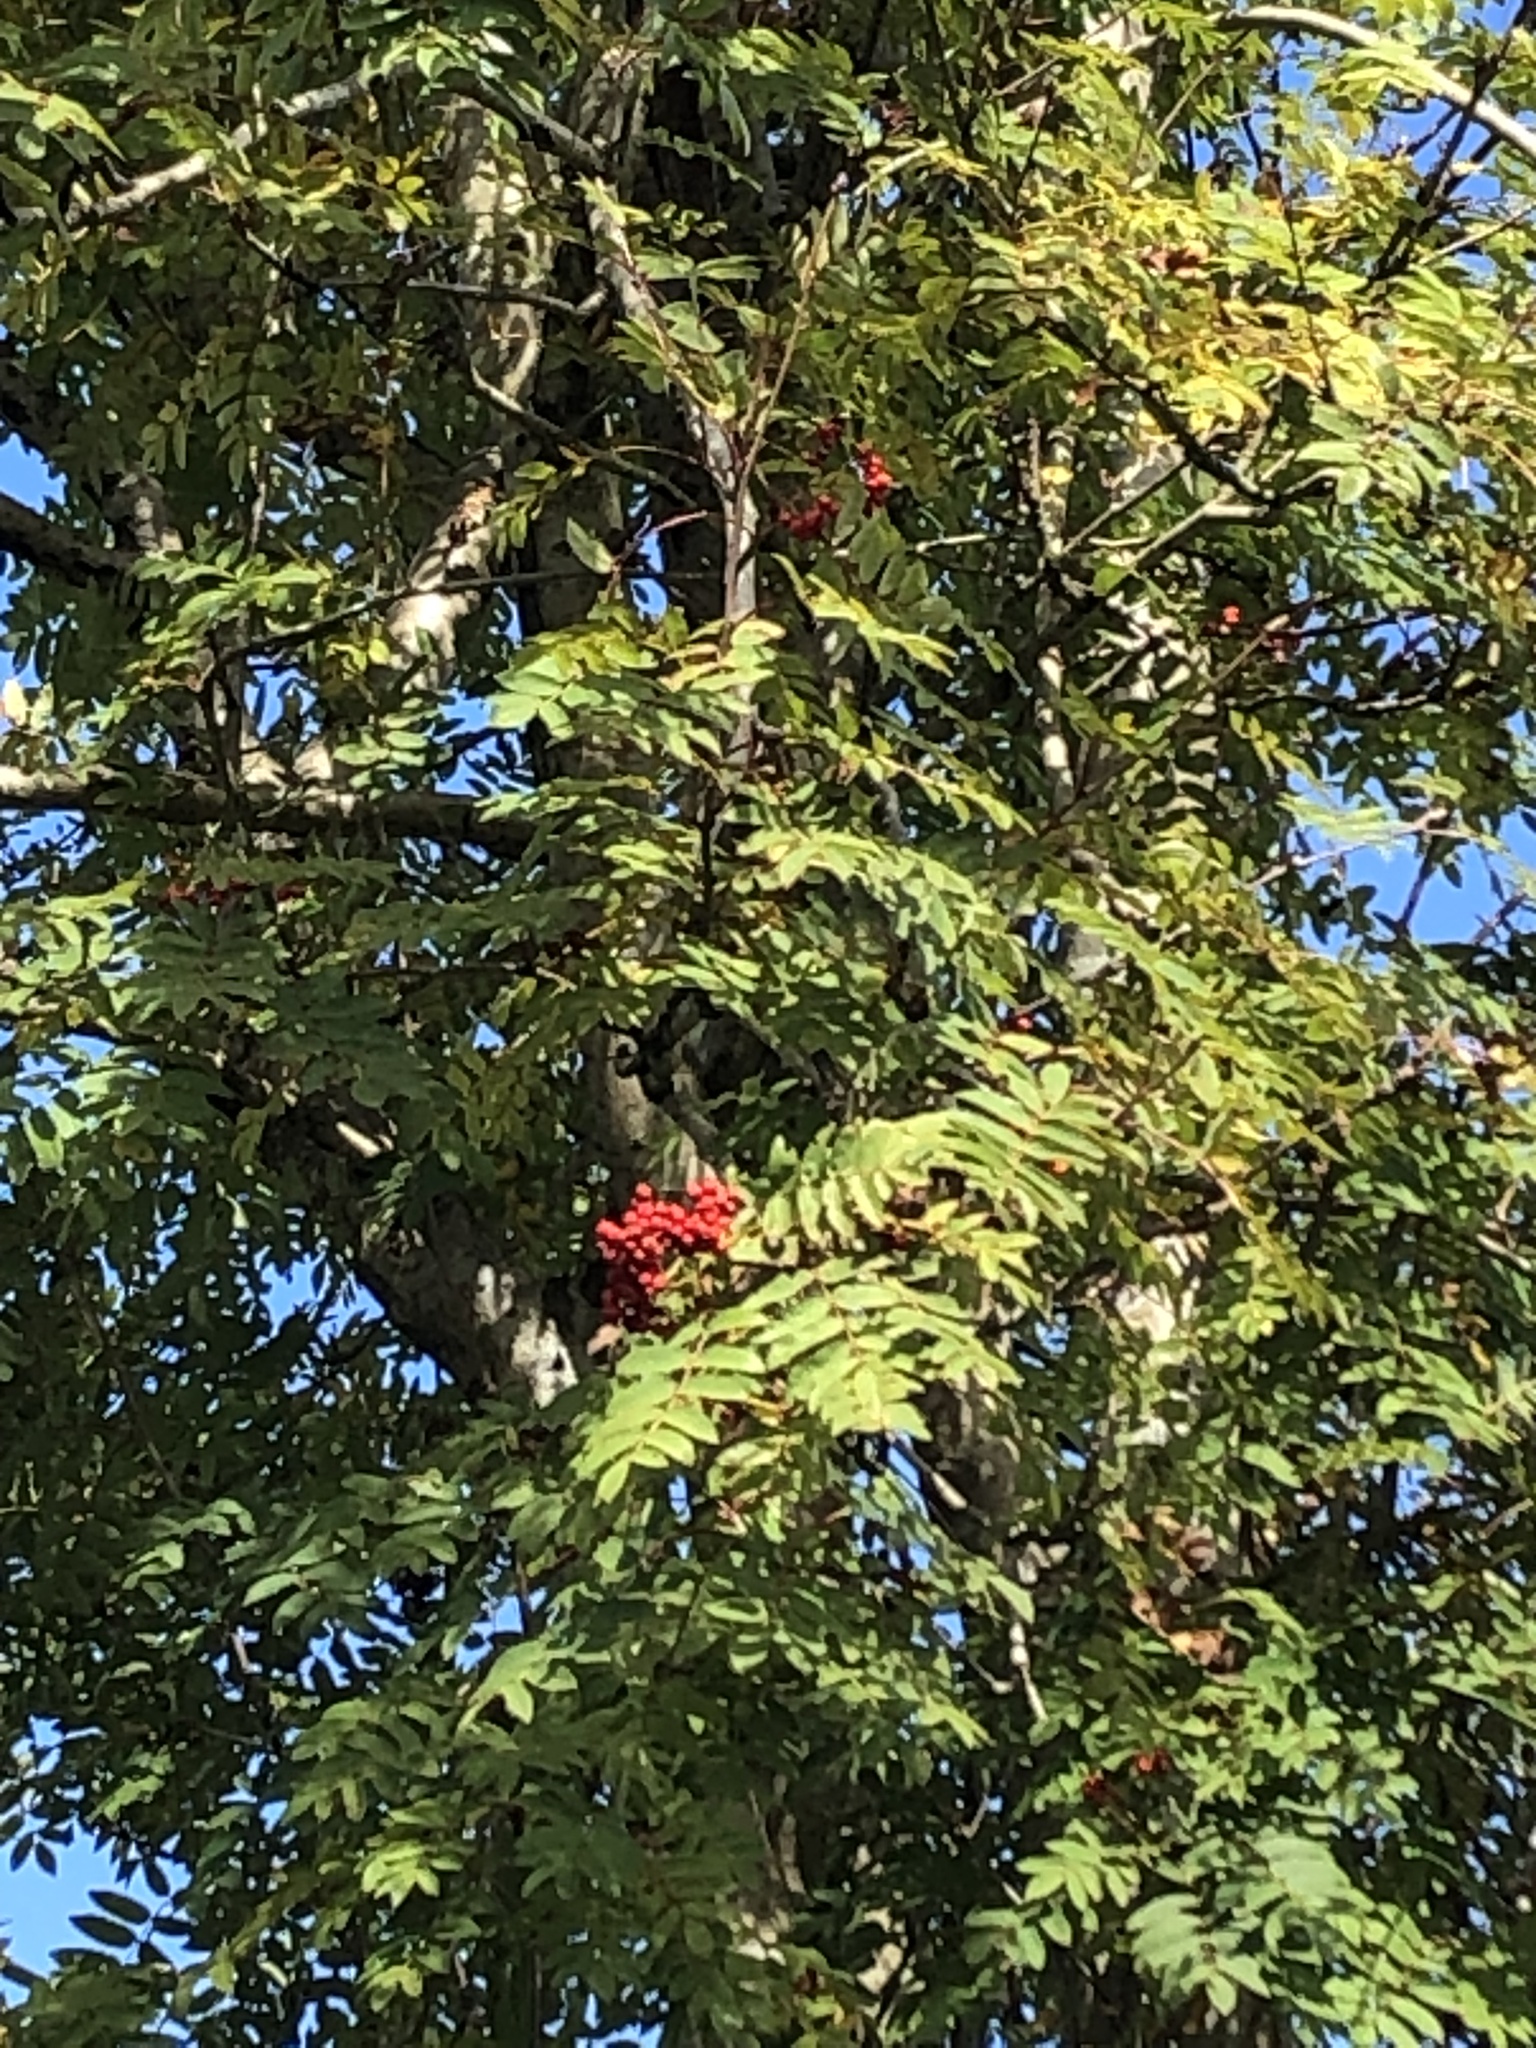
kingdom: Plantae
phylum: Tracheophyta
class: Magnoliopsida
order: Rosales
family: Rosaceae
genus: Sorbus
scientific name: Sorbus aucuparia
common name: Rowan
